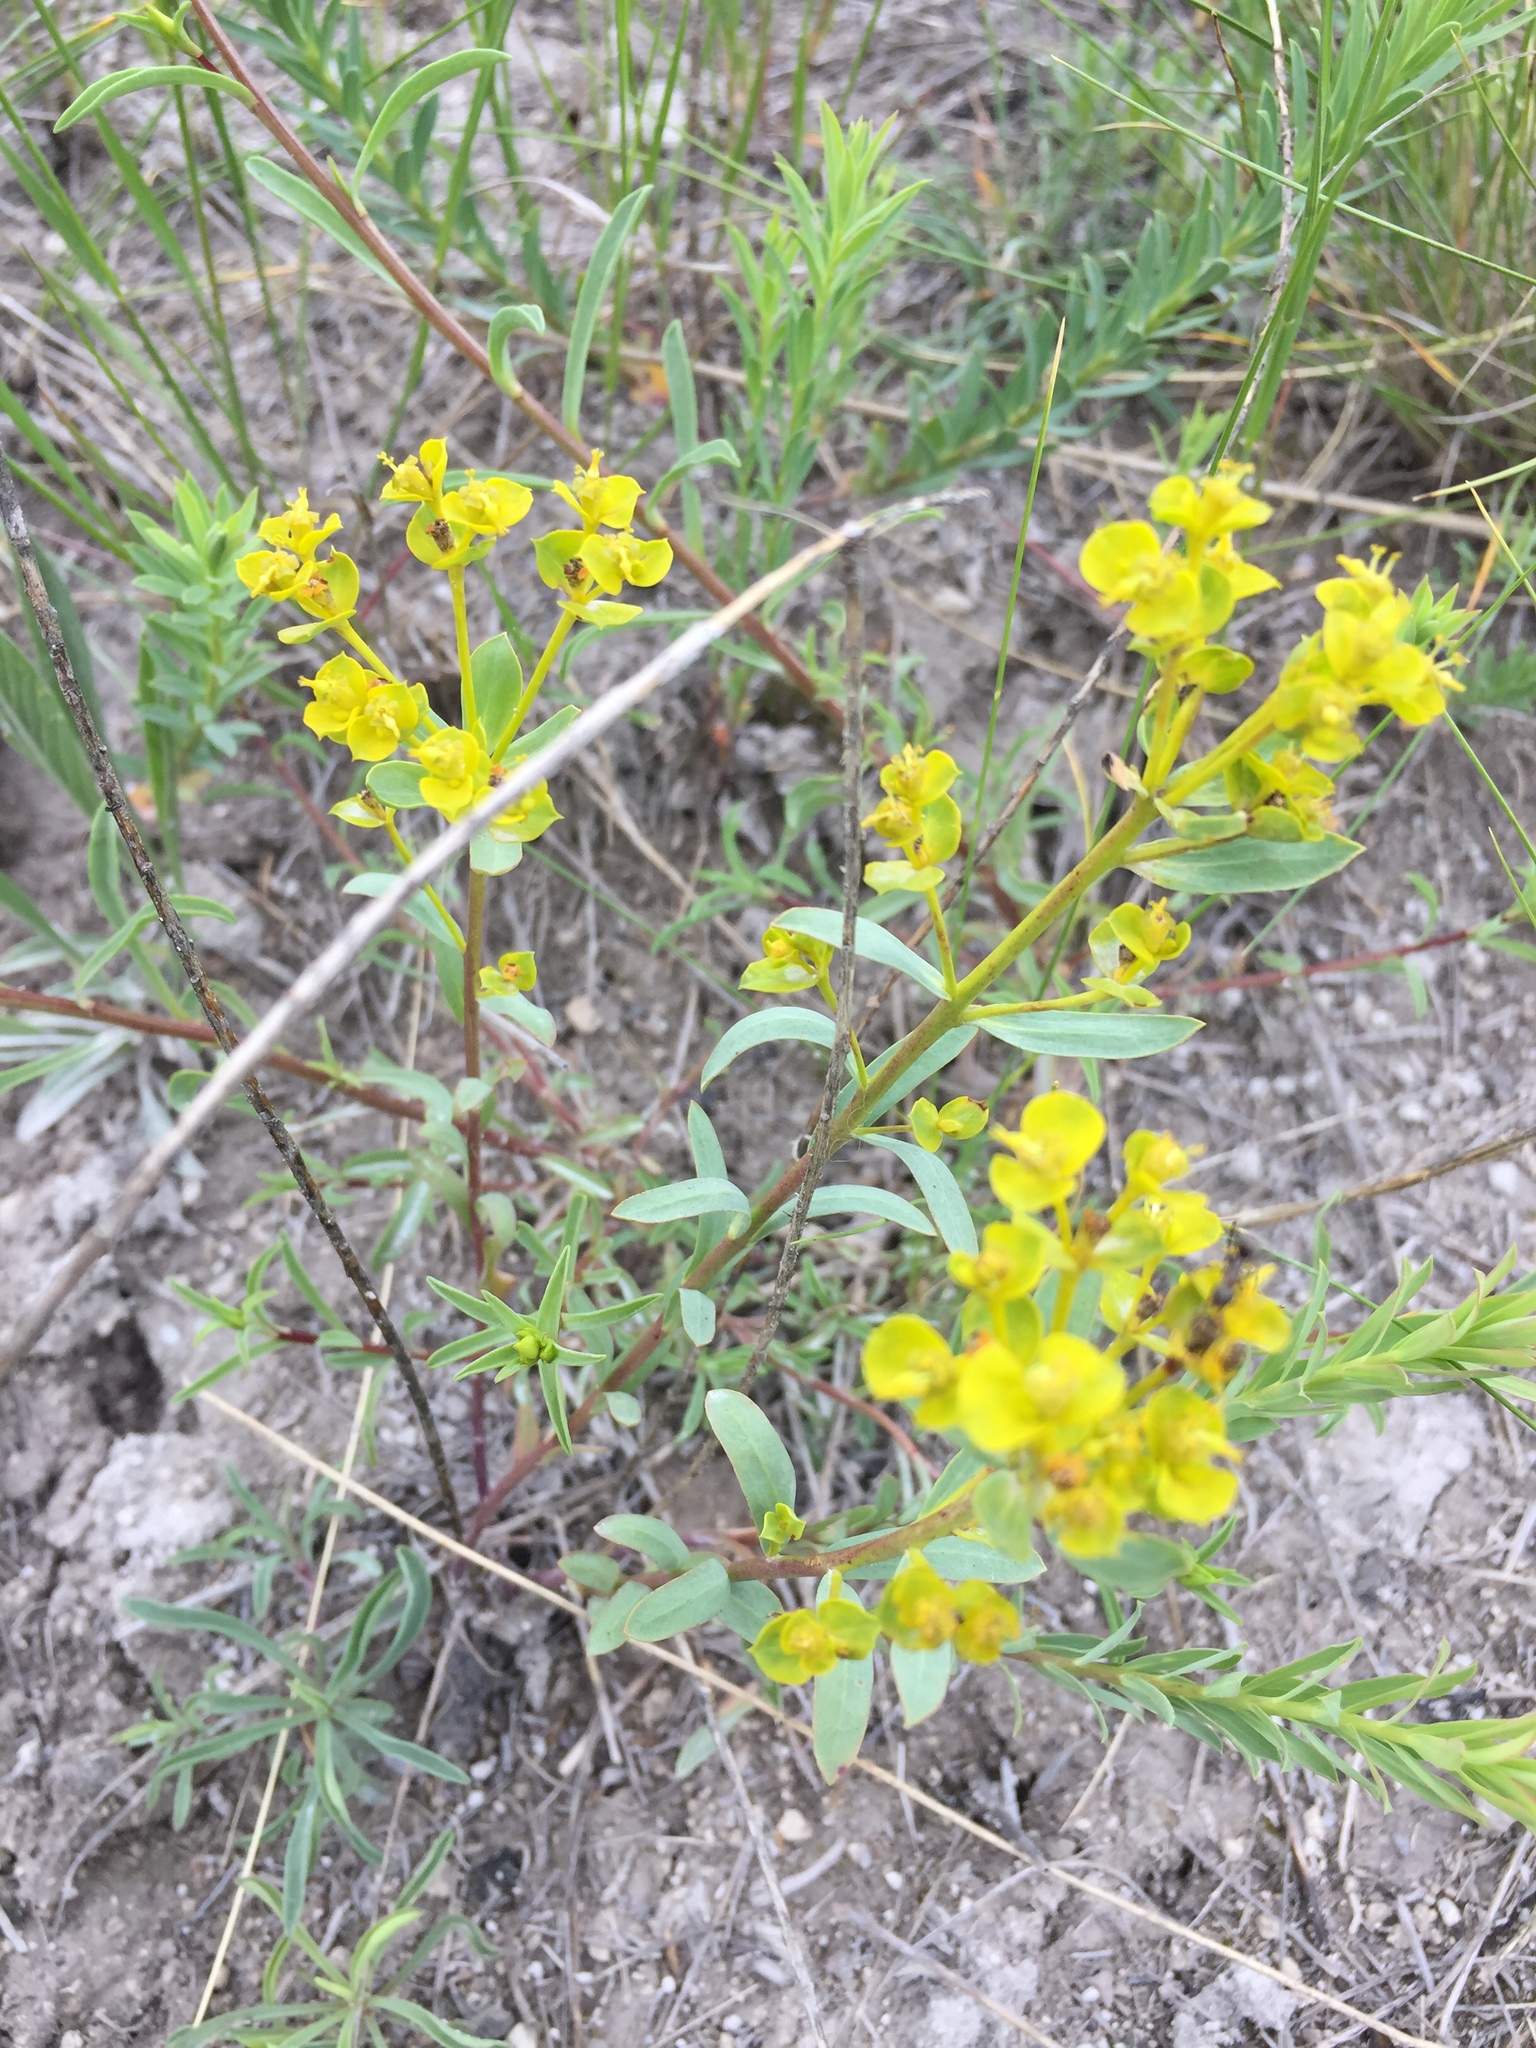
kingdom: Plantae
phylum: Tracheophyta
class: Magnoliopsida
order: Malpighiales
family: Euphorbiaceae
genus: Euphorbia
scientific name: Euphorbia seguieriana
